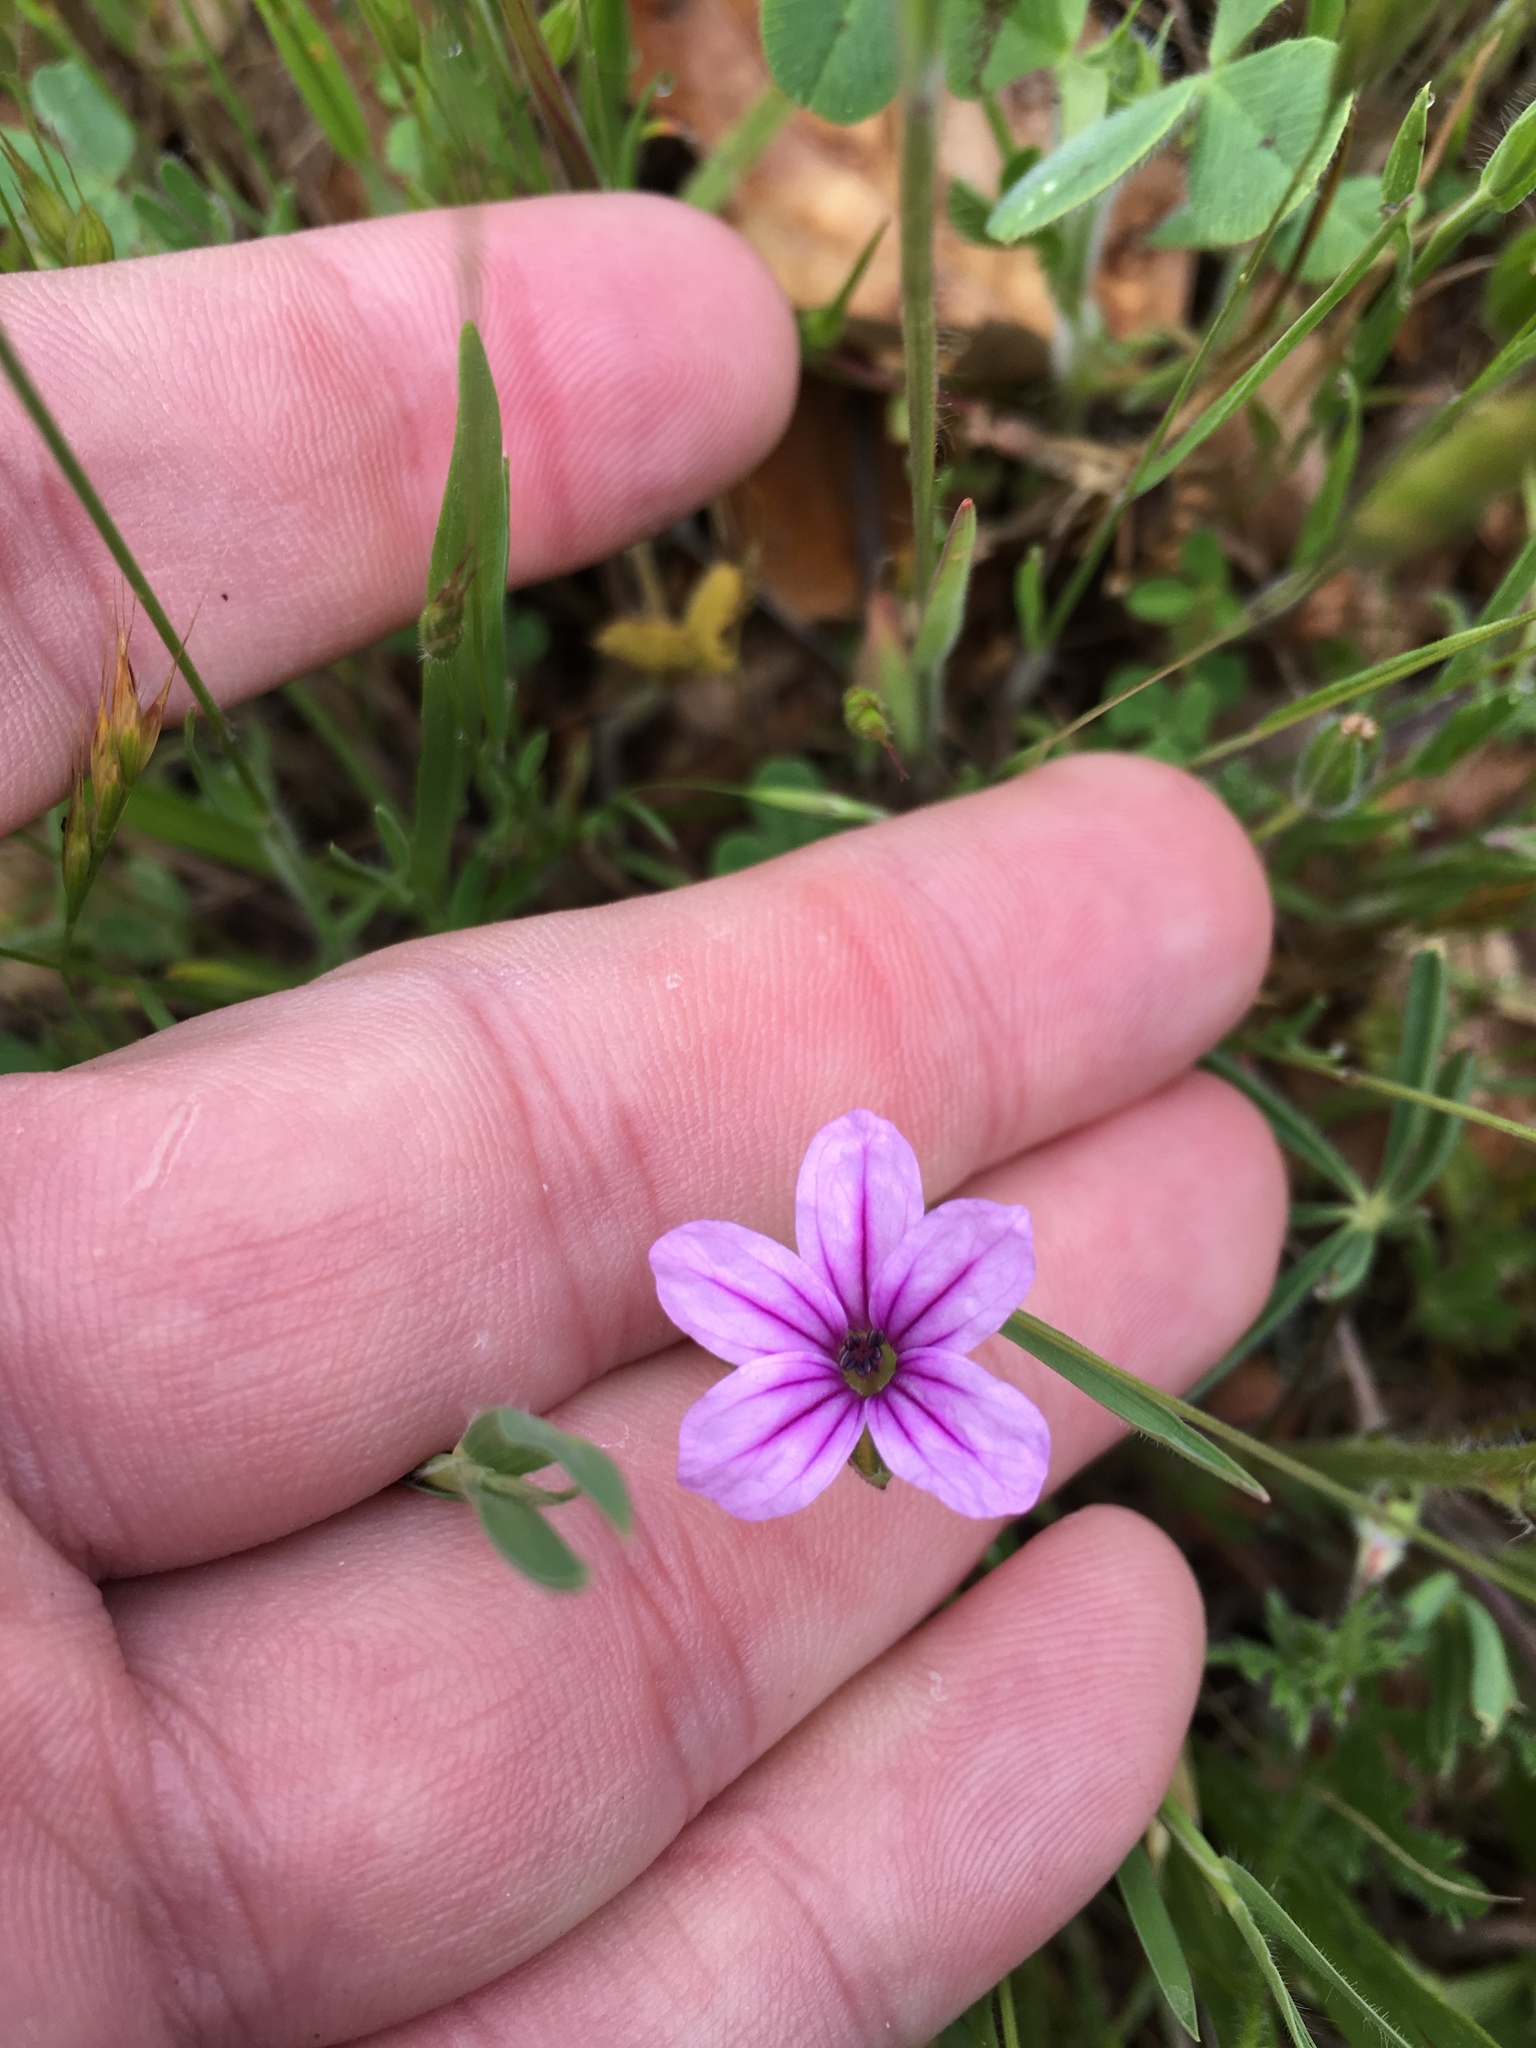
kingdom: Plantae
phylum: Tracheophyta
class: Magnoliopsida
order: Geraniales
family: Geraniaceae
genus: Erodium
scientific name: Erodium botrys
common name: Mediterranean stork's-bill
